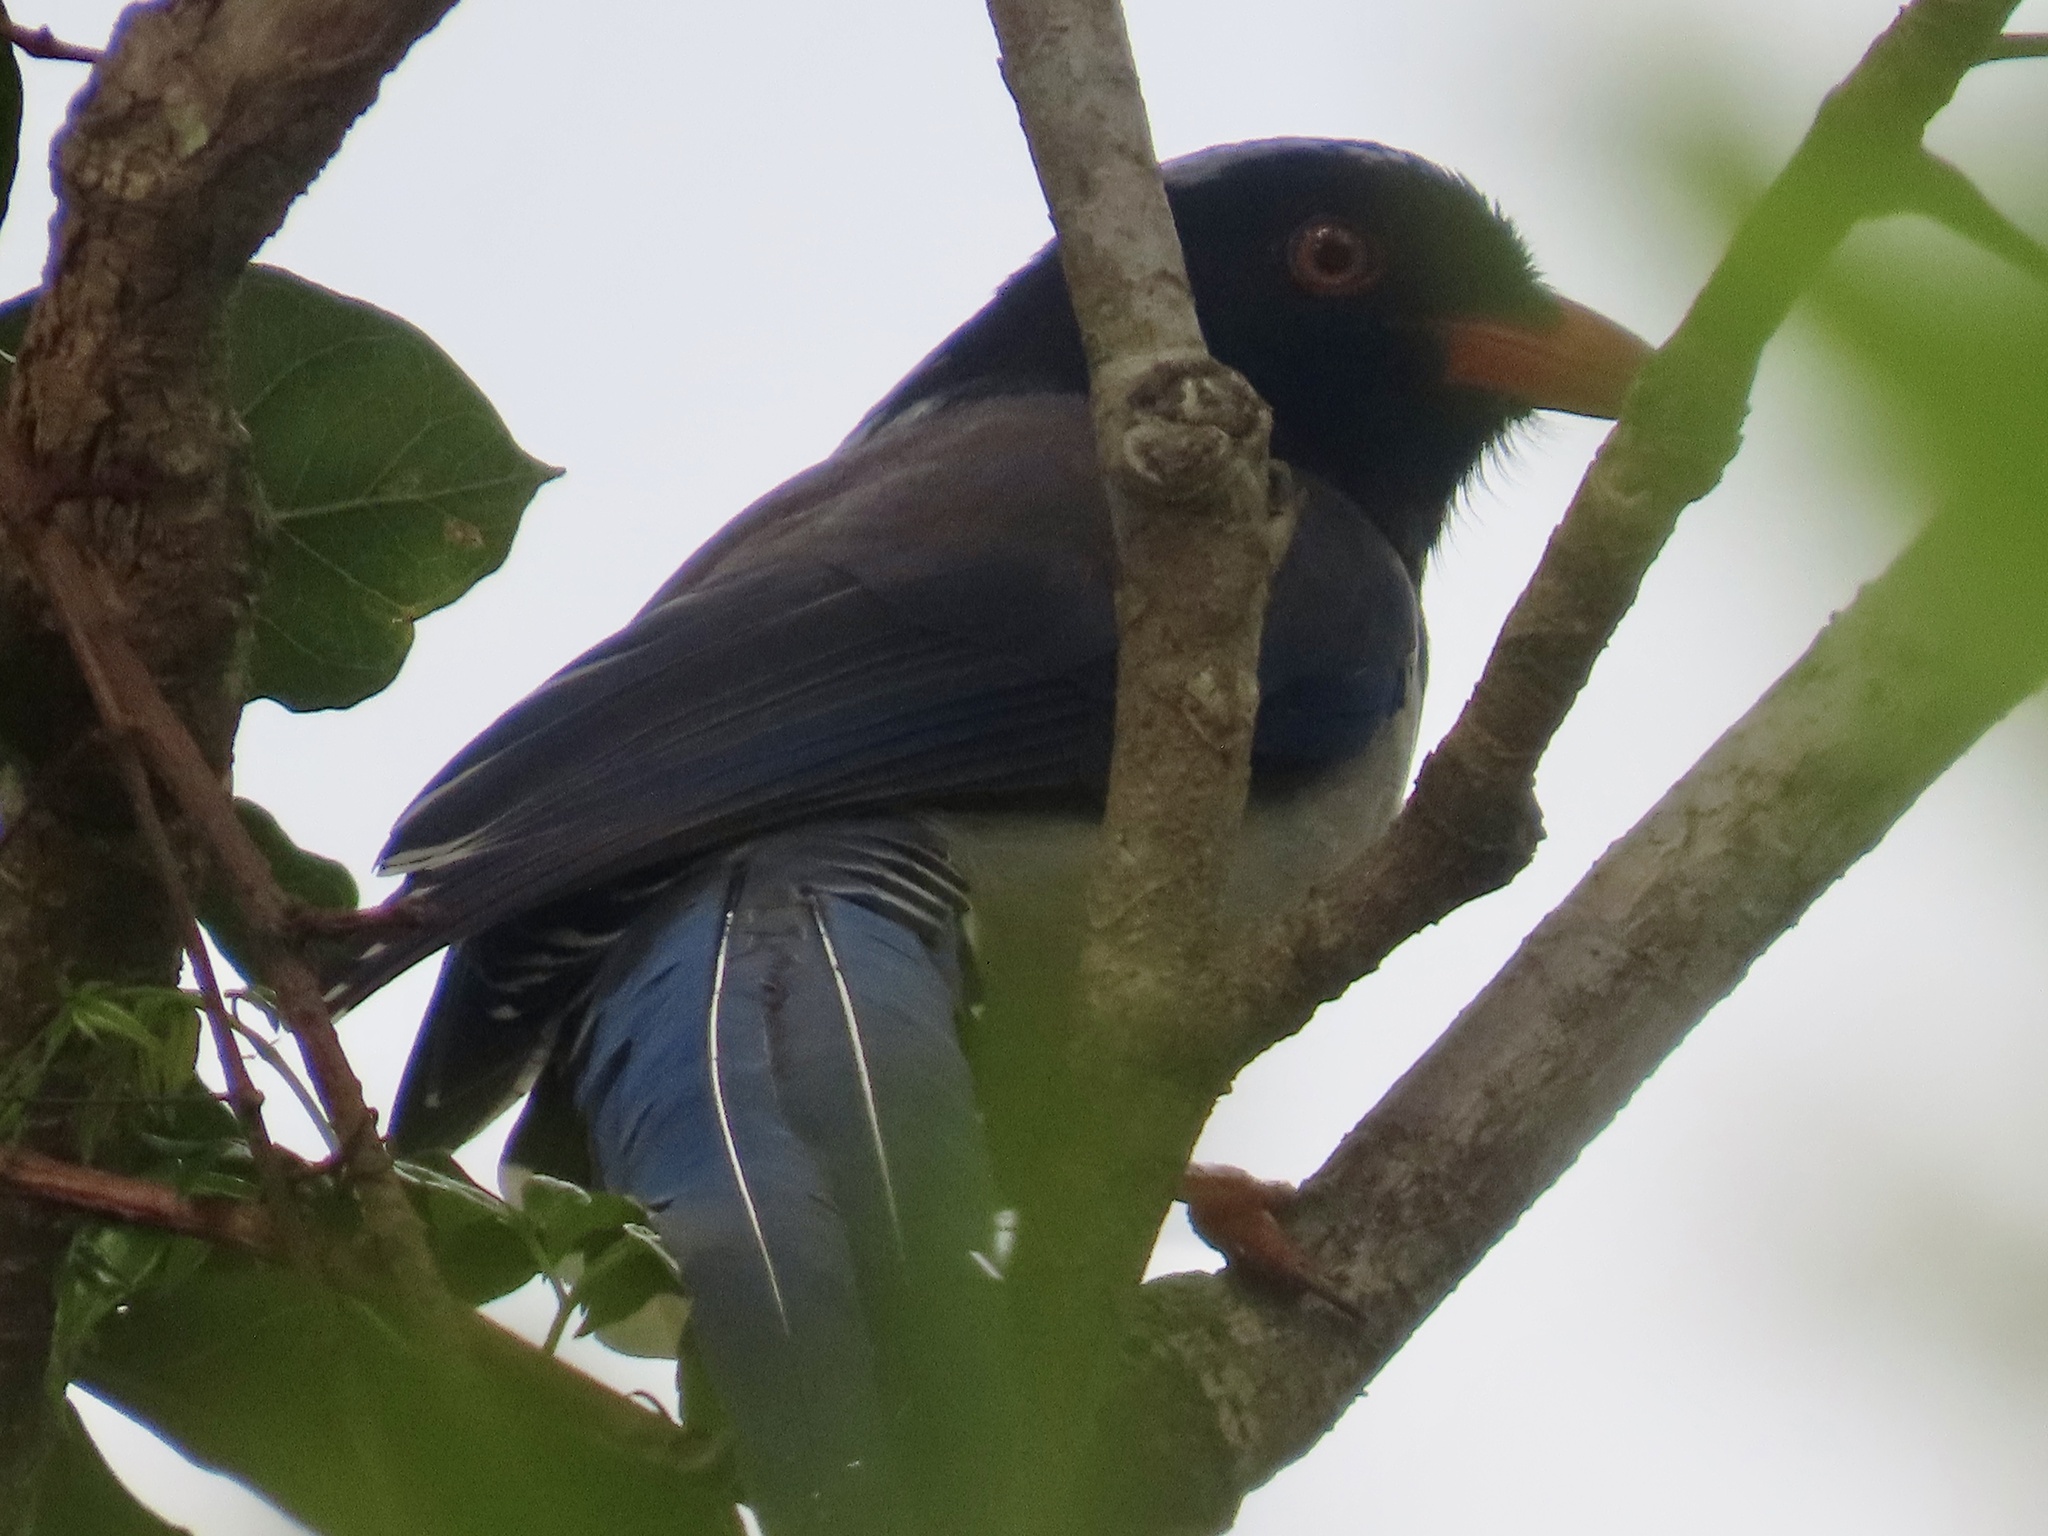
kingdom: Animalia
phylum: Chordata
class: Aves
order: Passeriformes
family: Corvidae
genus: Urocissa
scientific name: Urocissa erythroryncha
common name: Red-billed blue magpie
